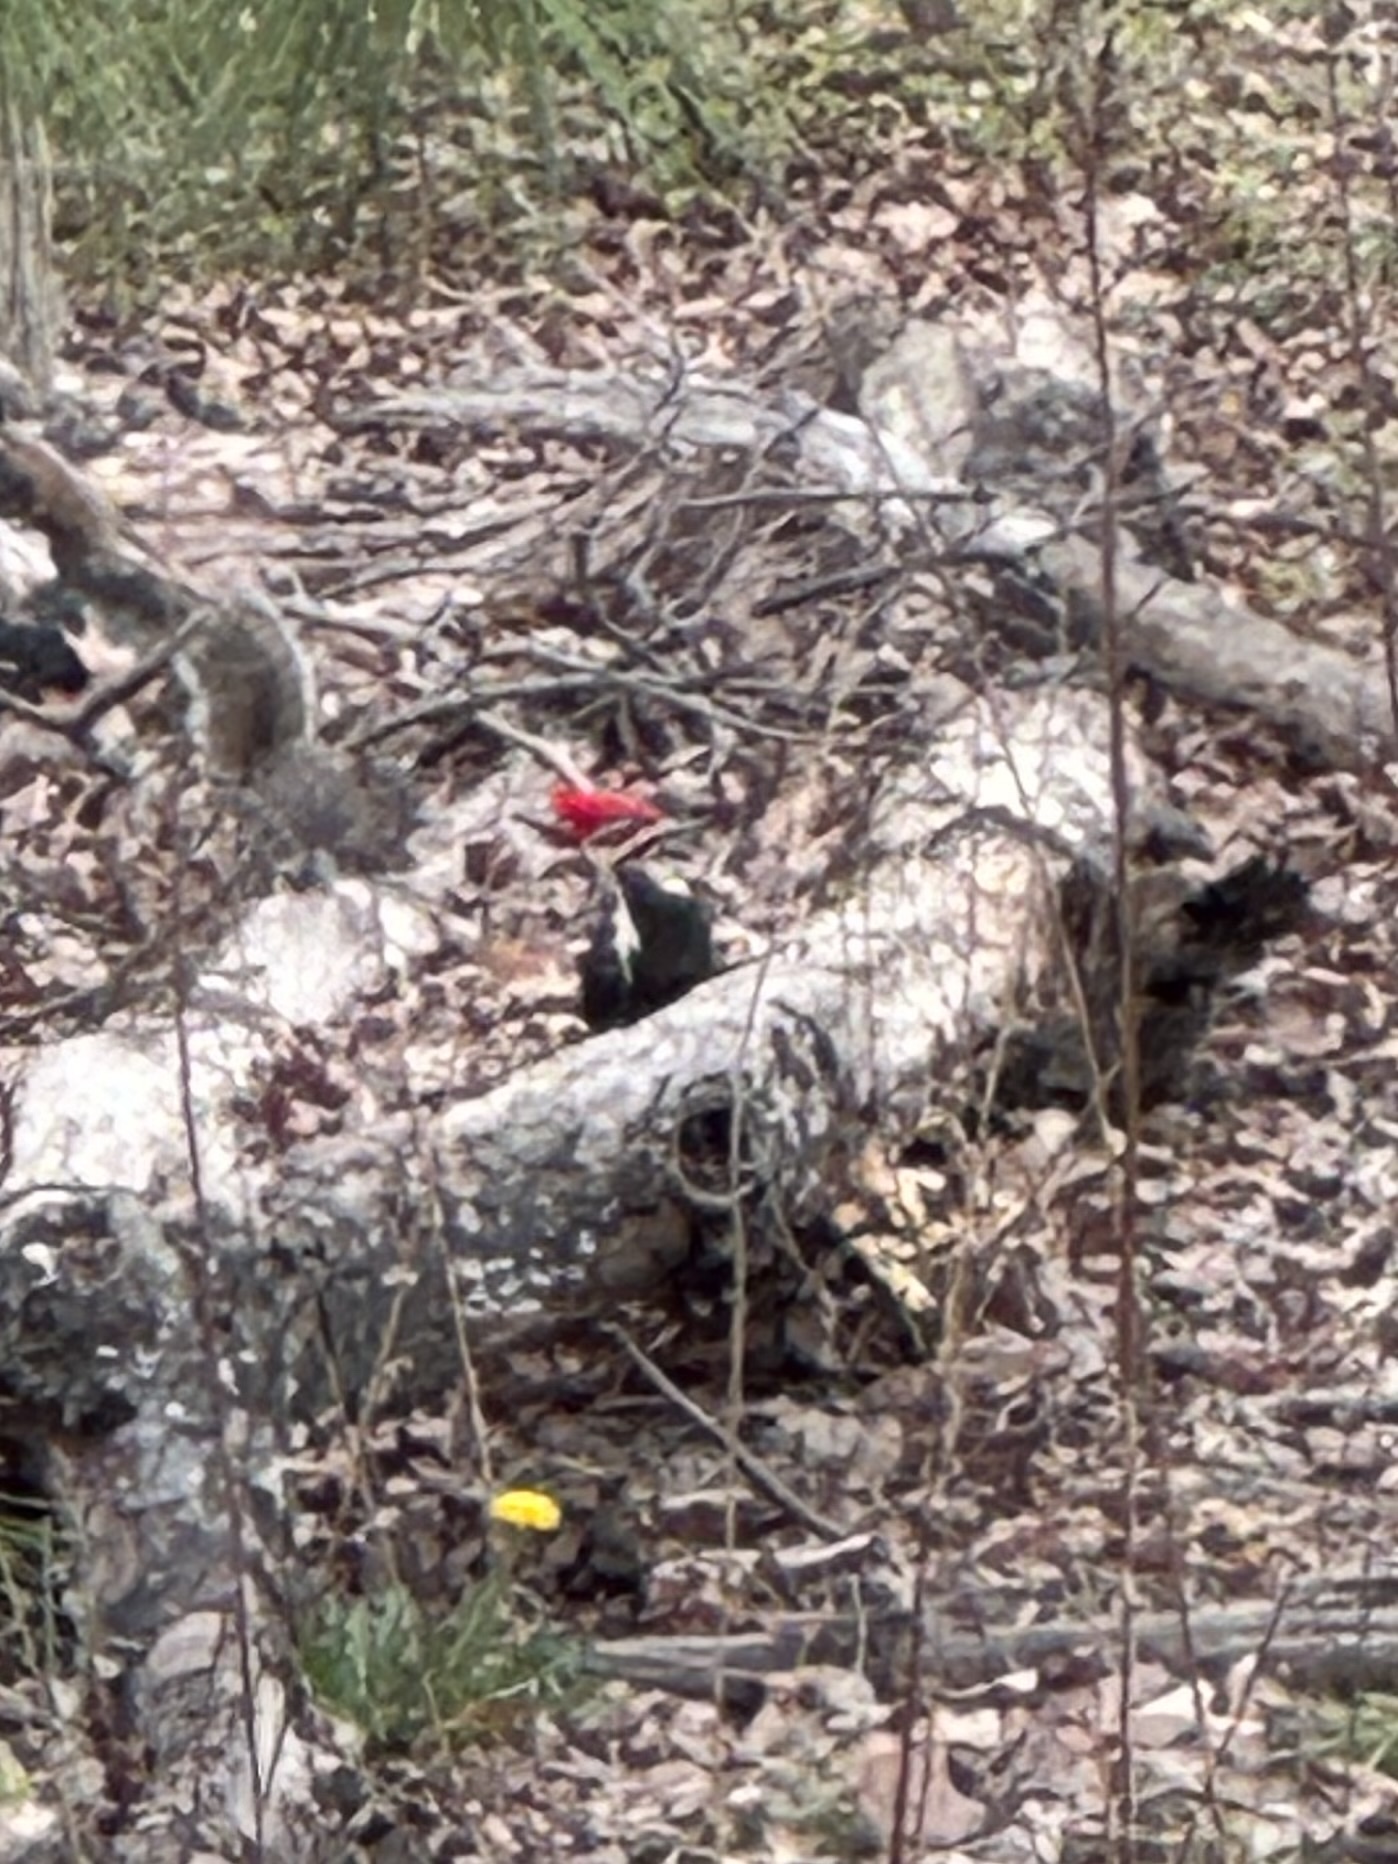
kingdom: Animalia
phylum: Chordata
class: Aves
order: Piciformes
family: Picidae
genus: Dryocopus
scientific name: Dryocopus pileatus
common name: Pileated woodpecker
